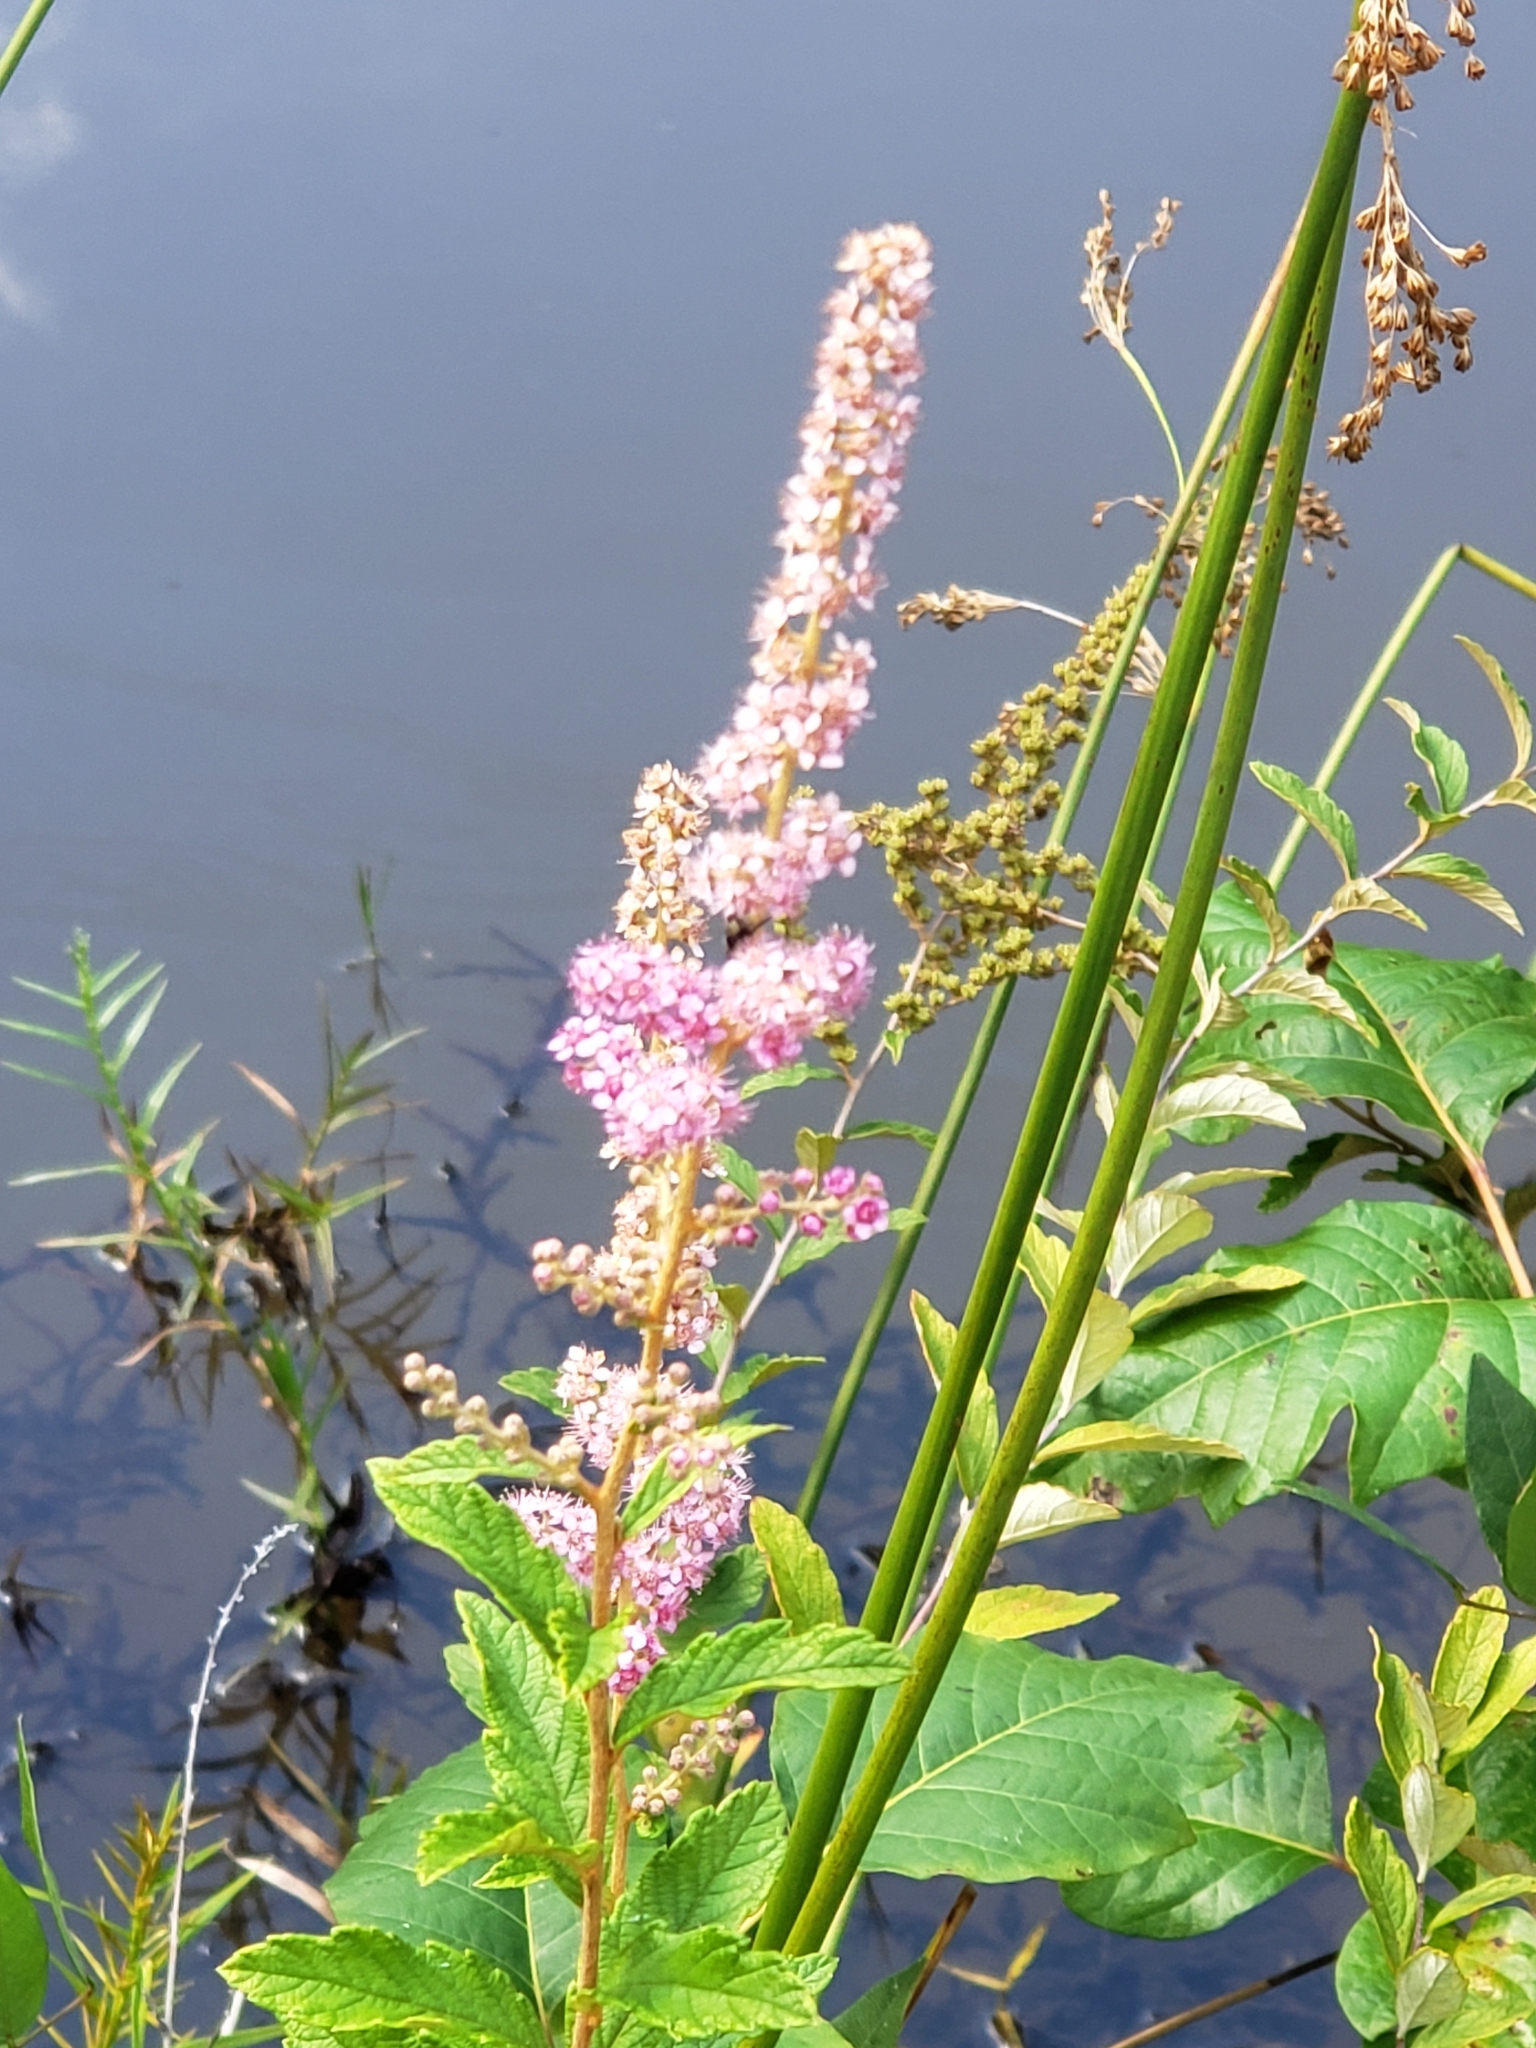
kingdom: Plantae
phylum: Tracheophyta
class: Magnoliopsida
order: Rosales
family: Rosaceae
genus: Spiraea
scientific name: Spiraea tomentosa
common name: Hardhack
